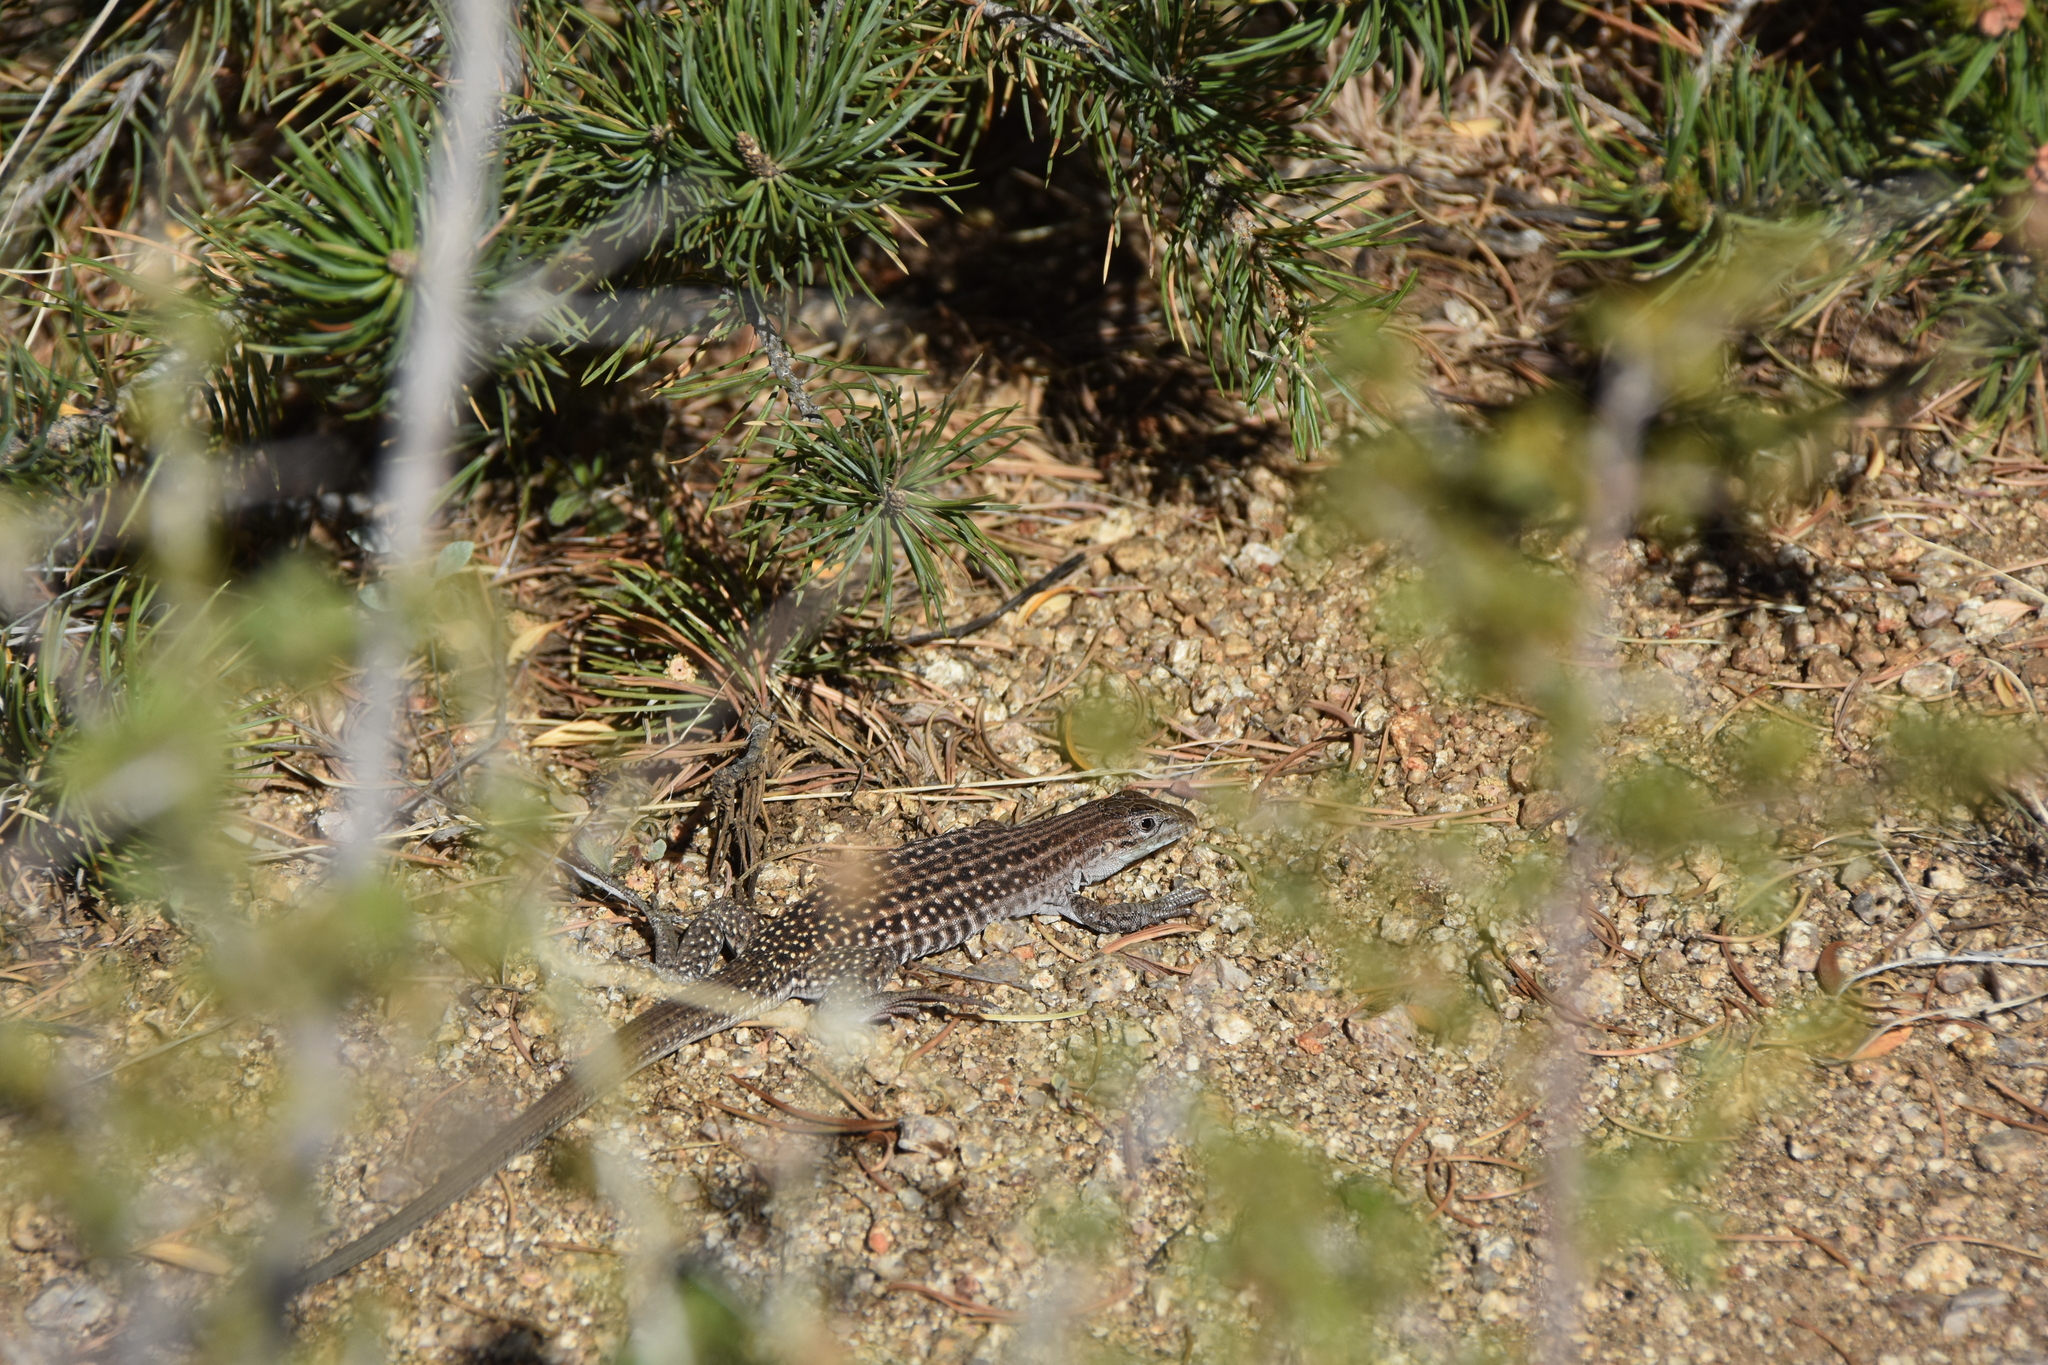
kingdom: Animalia
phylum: Chordata
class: Squamata
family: Teiidae
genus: Aspidoscelis
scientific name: Aspidoscelis exsanguis
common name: Chihuahuan spotted whiptail
